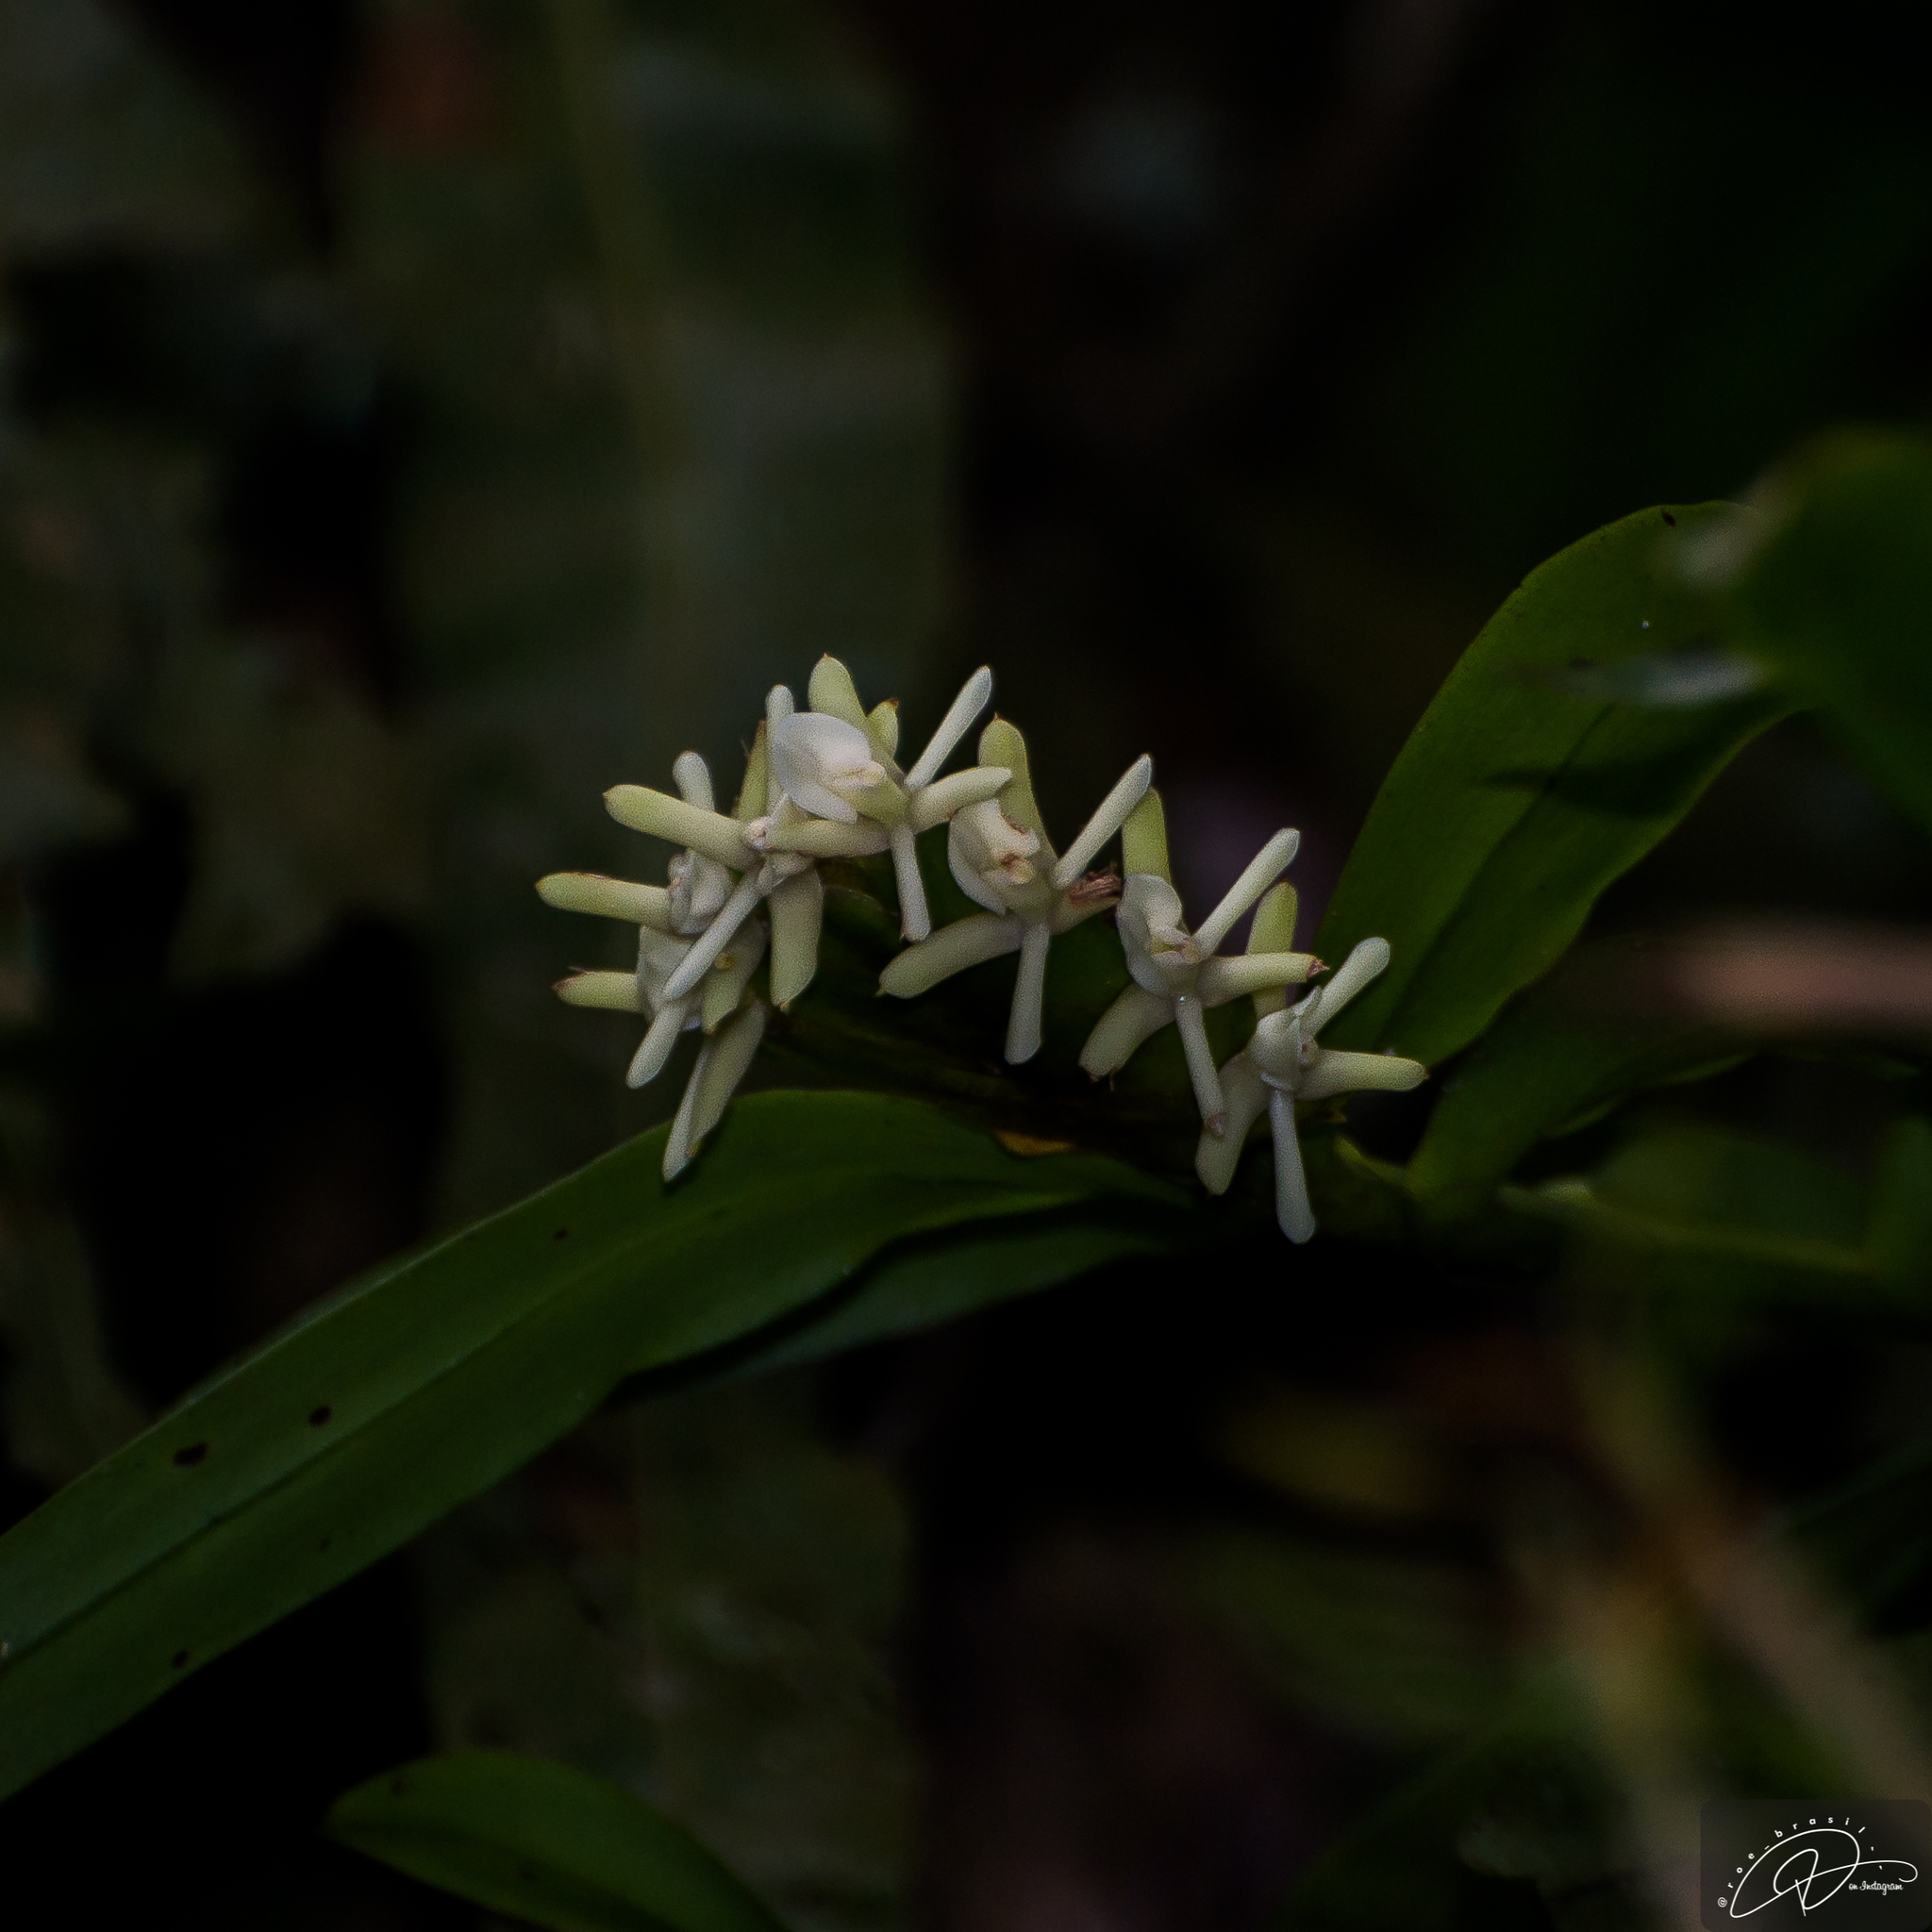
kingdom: Plantae
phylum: Tracheophyta
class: Liliopsida
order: Asparagales
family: Orchidaceae
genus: Epidendrum
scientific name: Epidendrum paranaense
